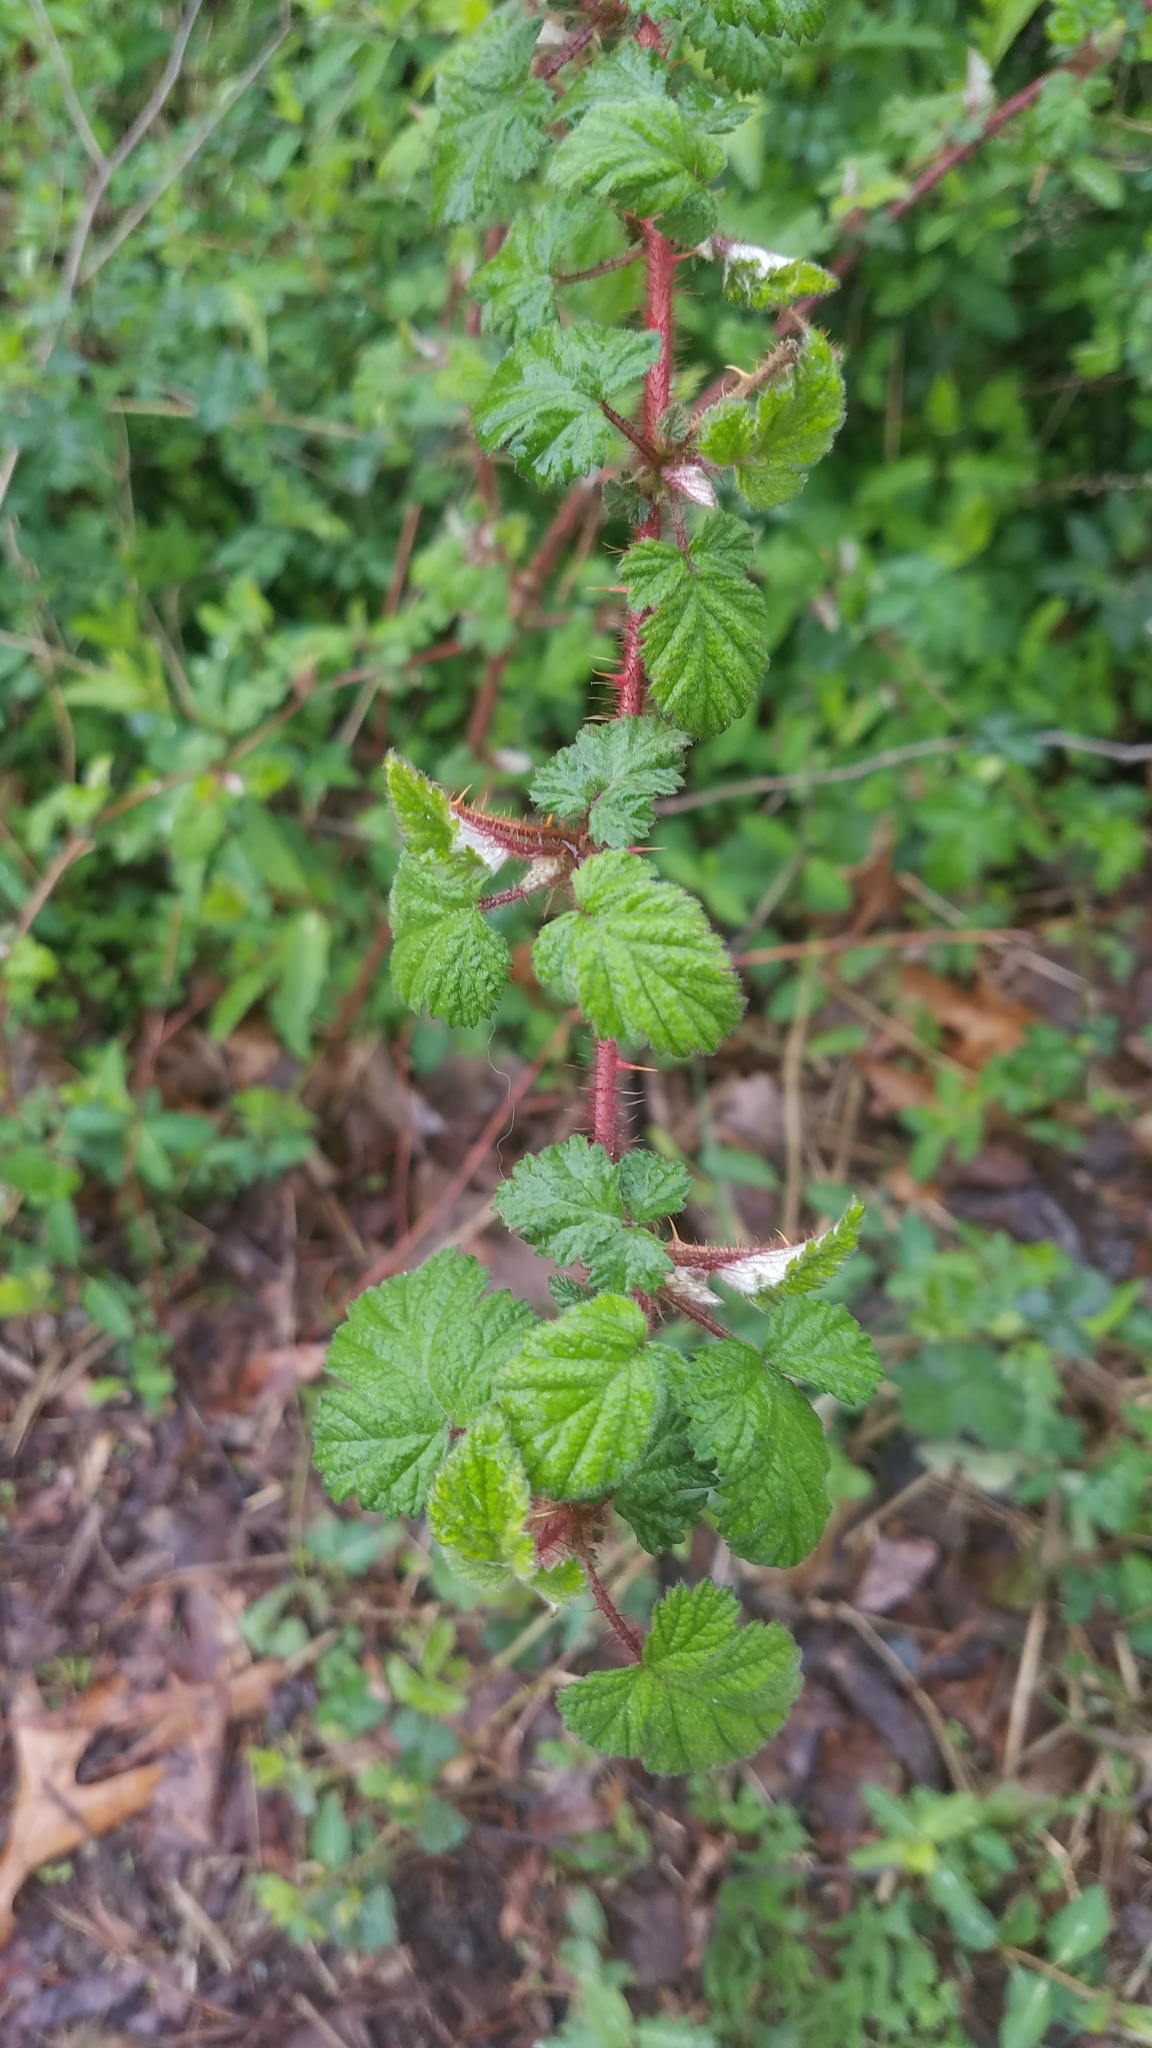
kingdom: Plantae
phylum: Tracheophyta
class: Magnoliopsida
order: Rosales
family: Rosaceae
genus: Rubus
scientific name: Rubus phoenicolasius
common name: Japanese wineberry
